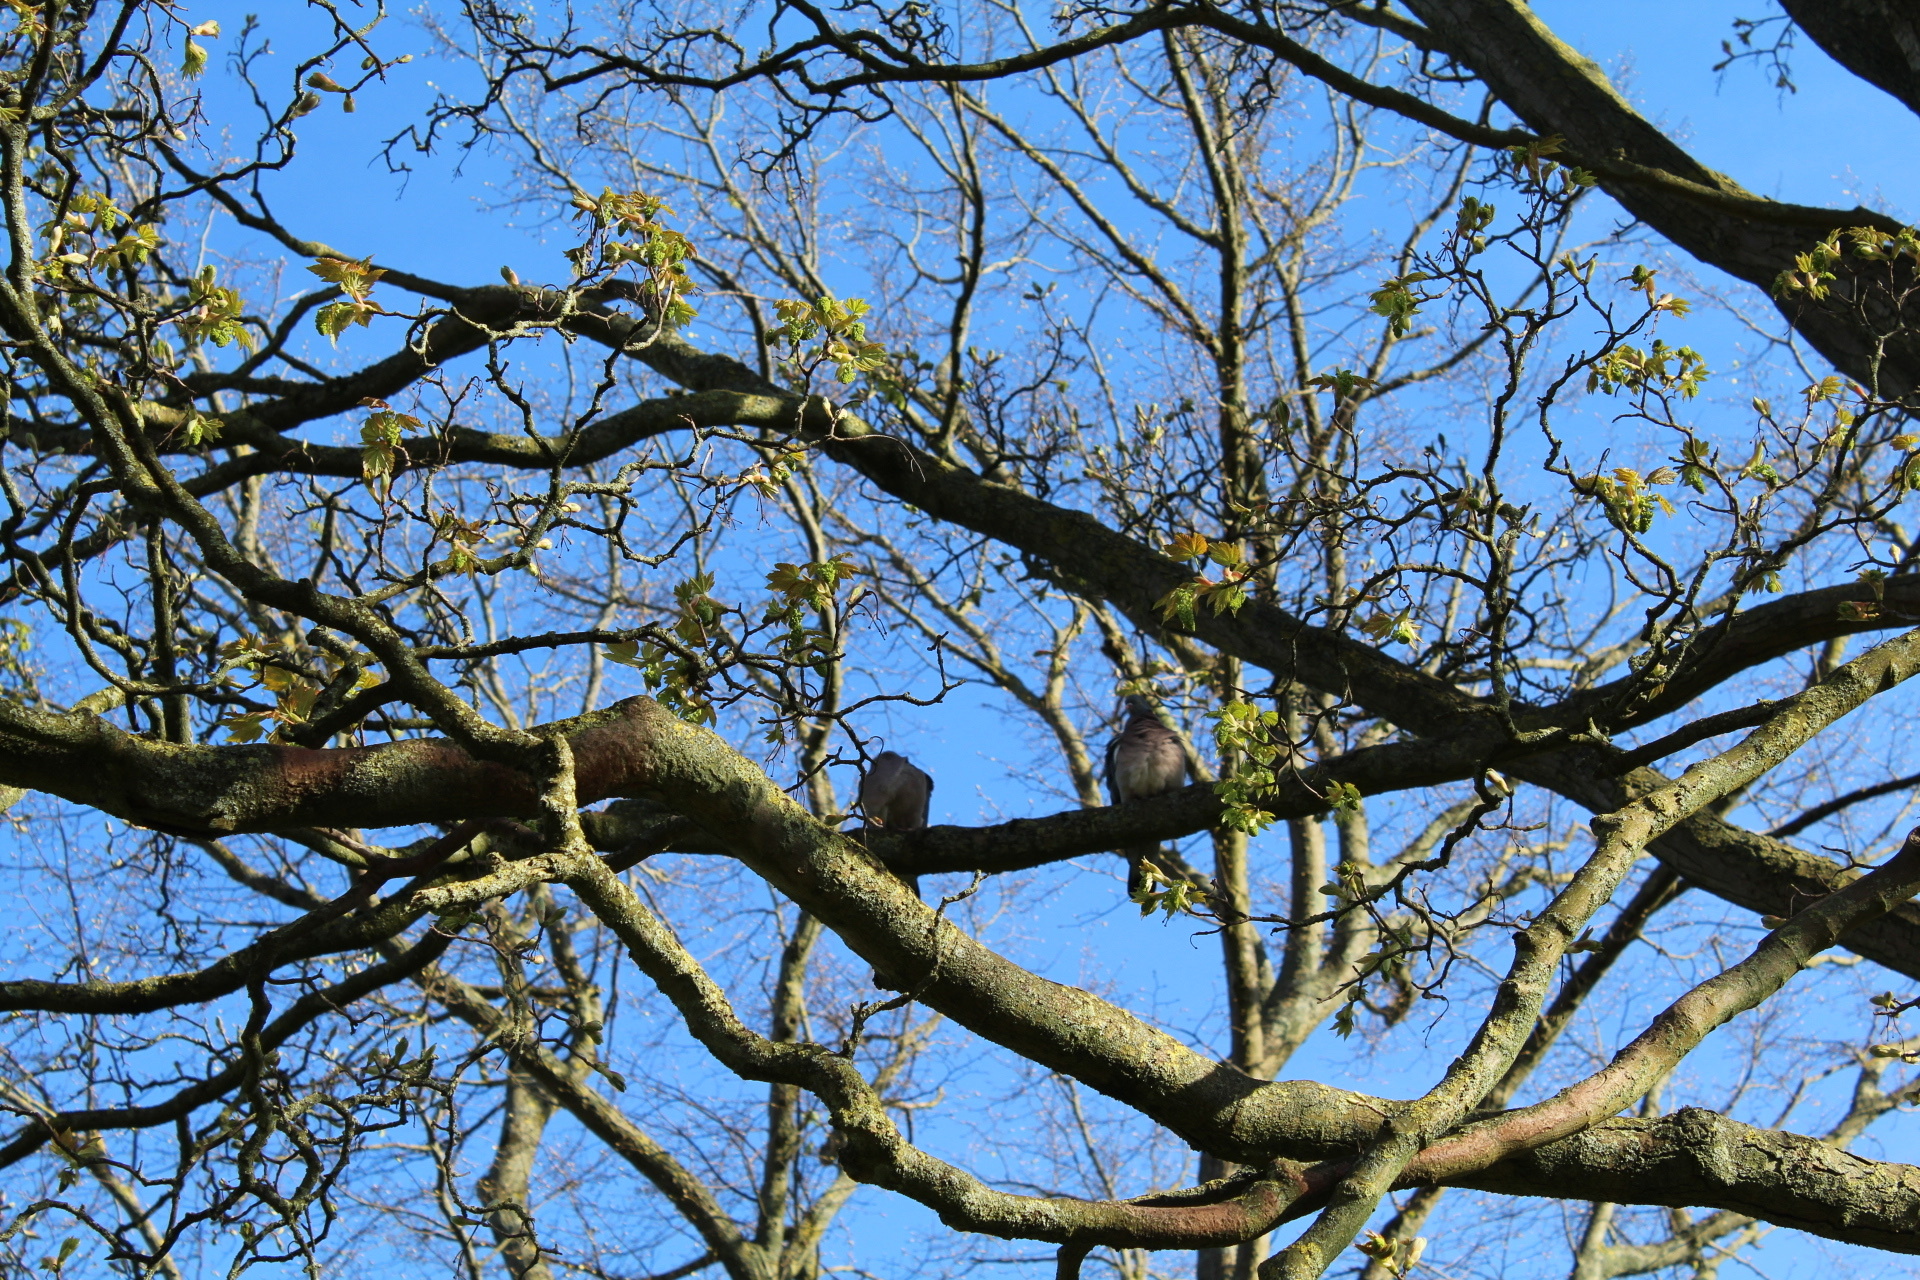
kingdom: Animalia
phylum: Chordata
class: Aves
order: Columbiformes
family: Columbidae
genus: Columba
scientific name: Columba palumbus
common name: Common wood pigeon
